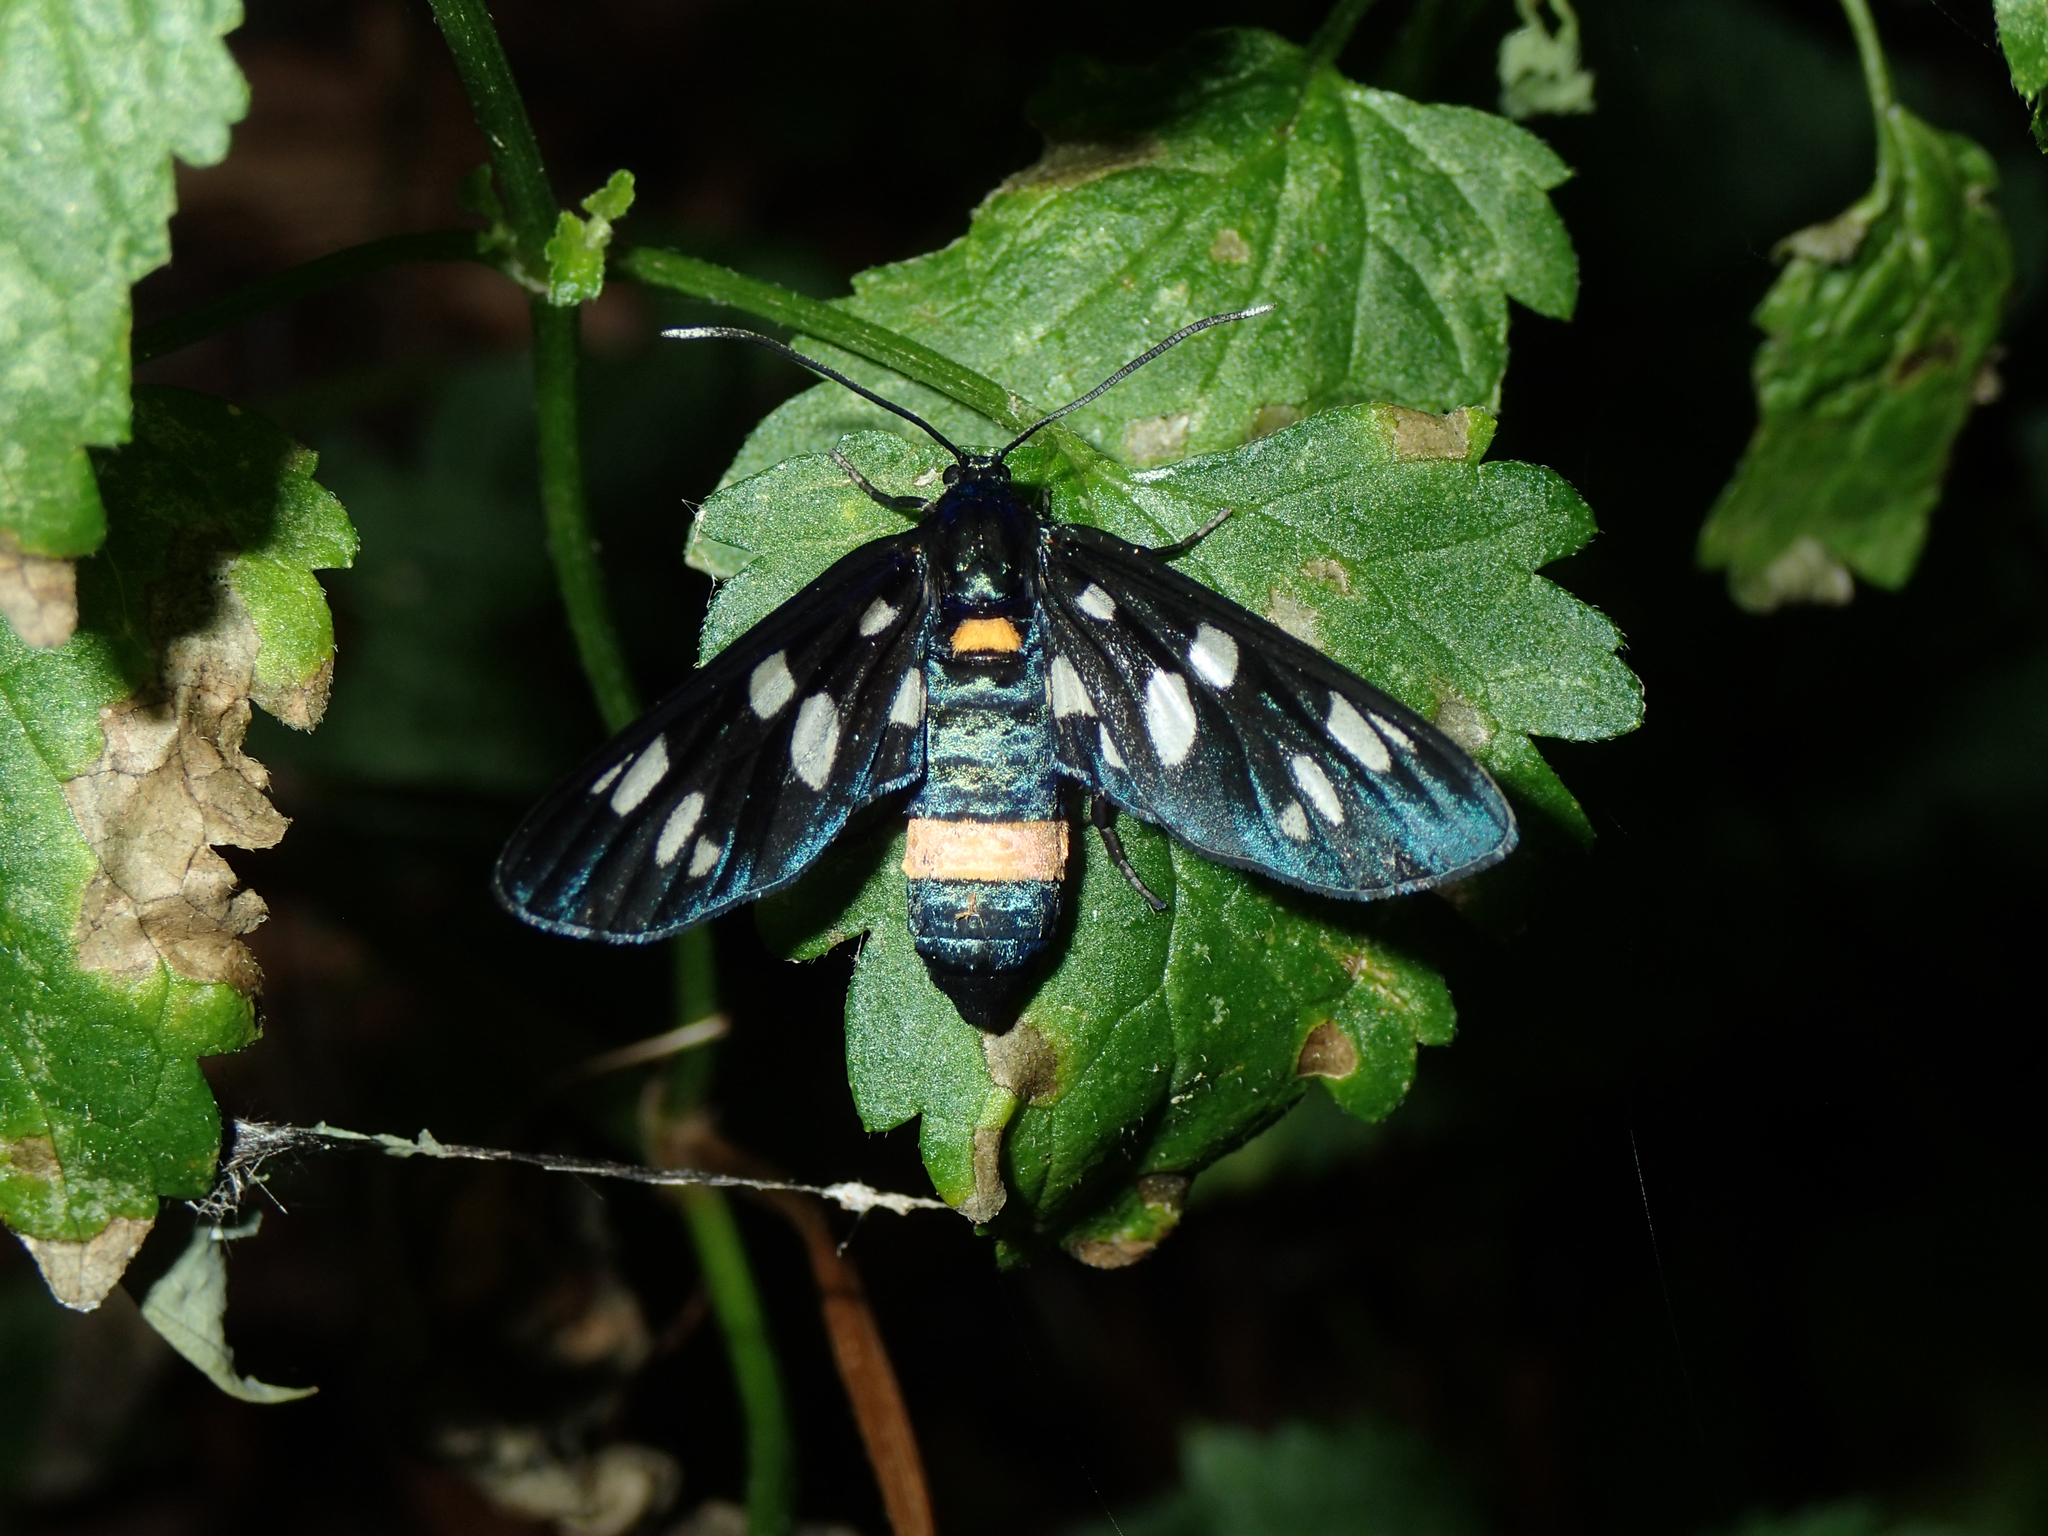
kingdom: Animalia
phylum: Arthropoda
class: Insecta
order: Lepidoptera
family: Erebidae
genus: Amata
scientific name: Amata phegea
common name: Nine-spotted
